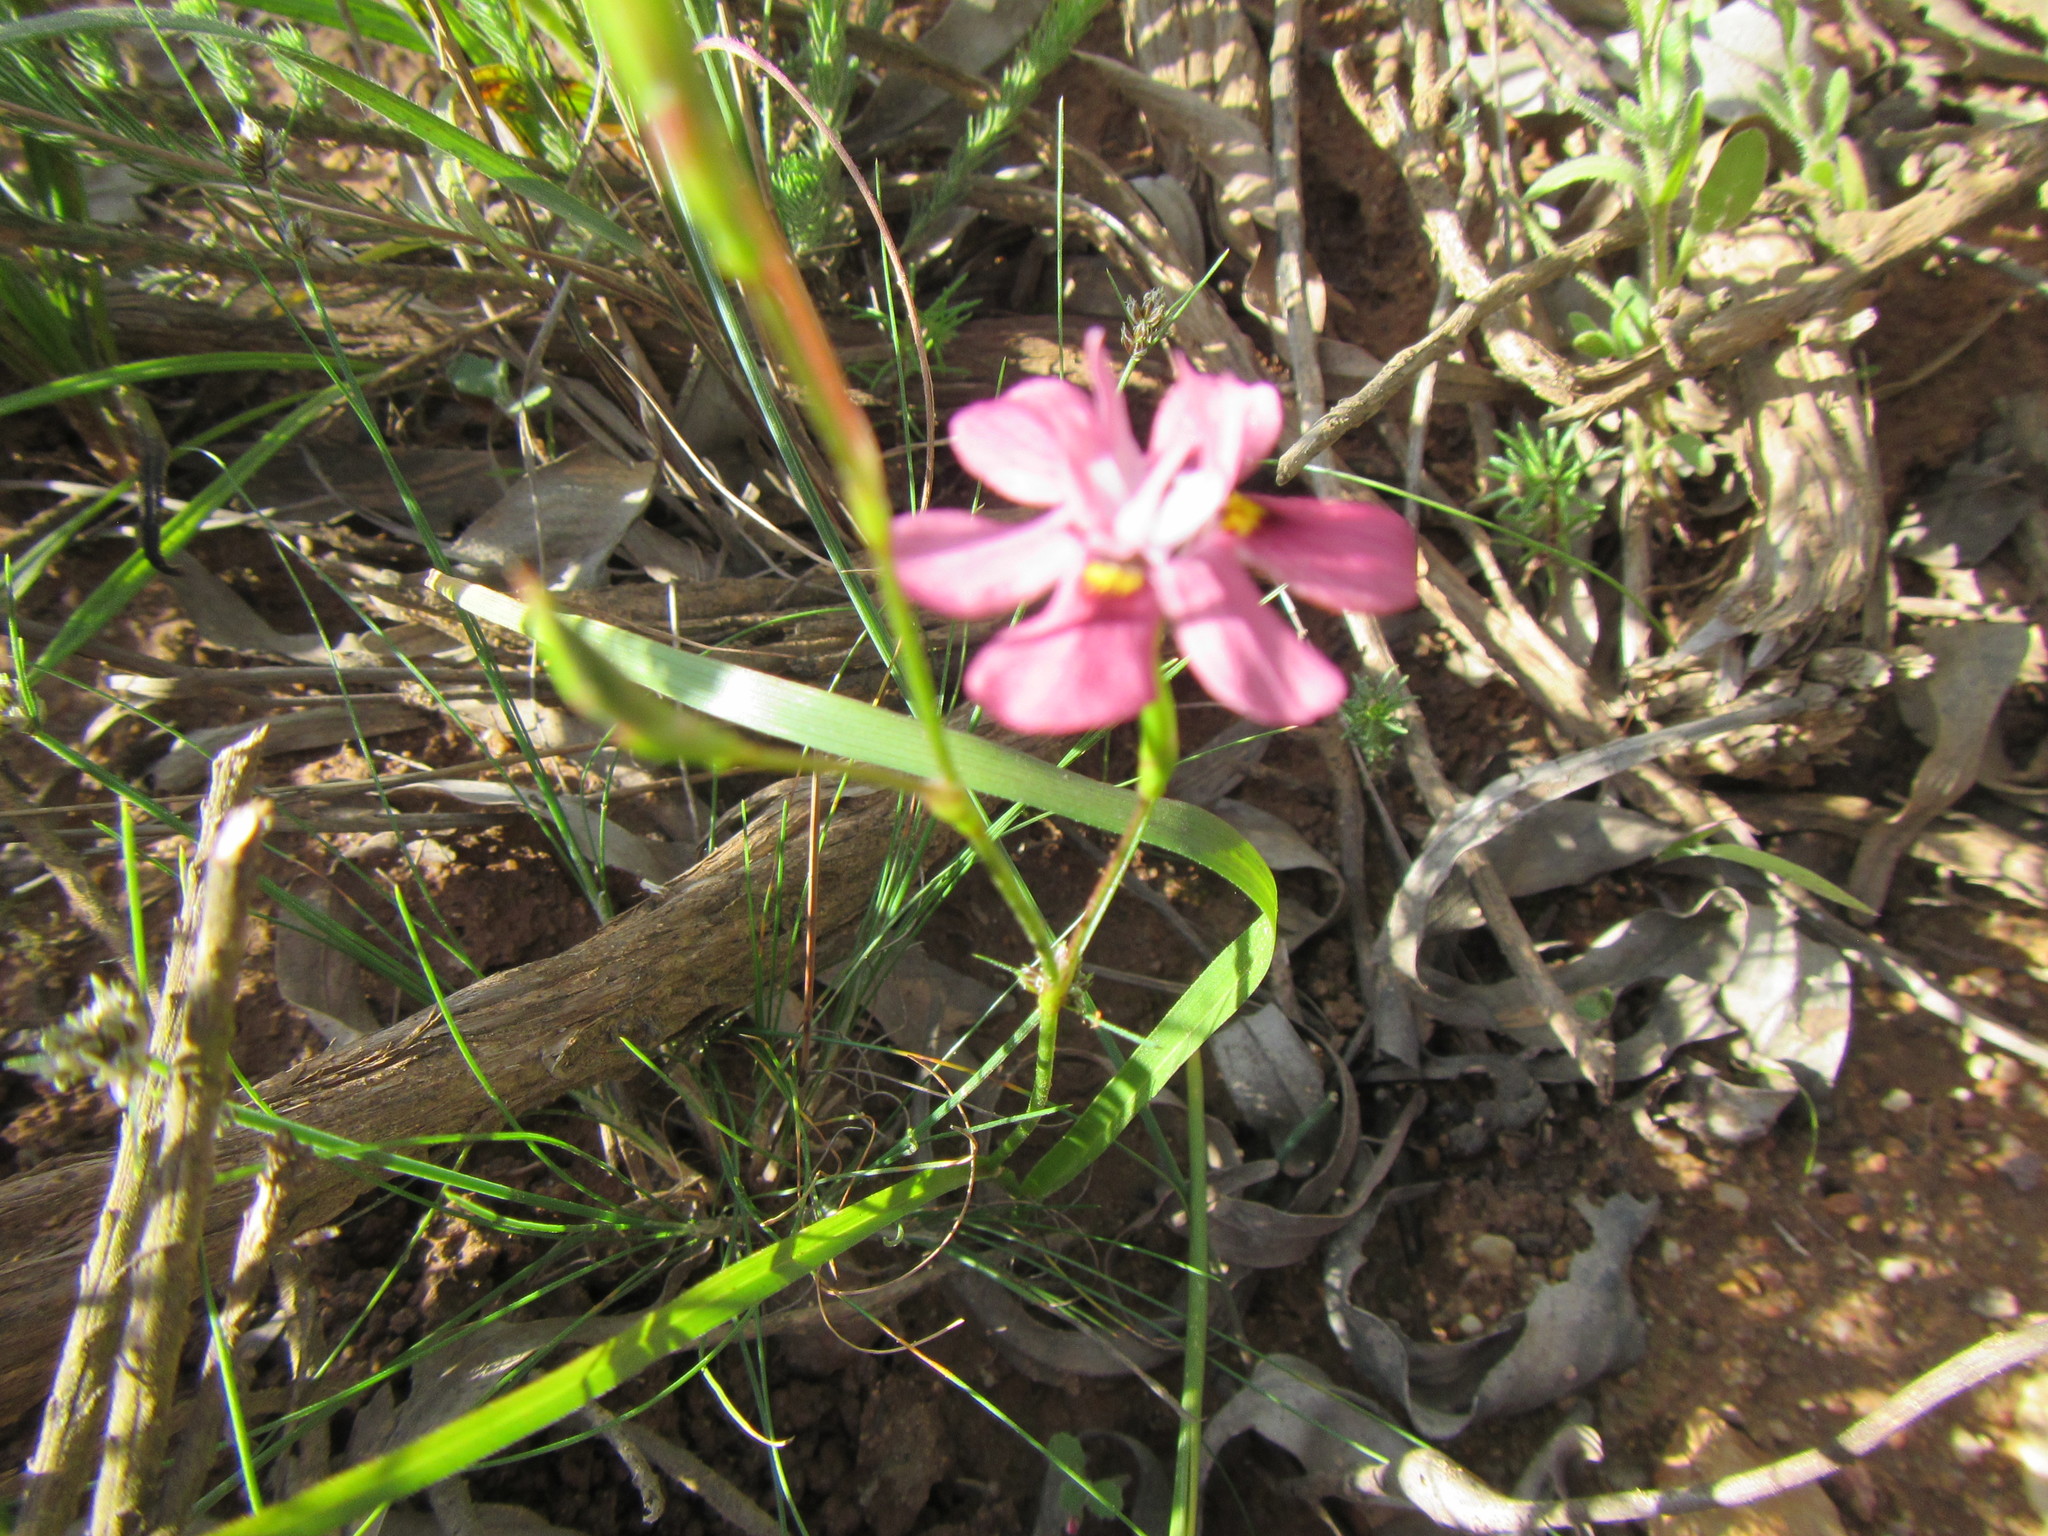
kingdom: Plantae
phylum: Tracheophyta
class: Liliopsida
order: Asparagales
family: Iridaceae
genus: Moraea
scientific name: Moraea gawleri
